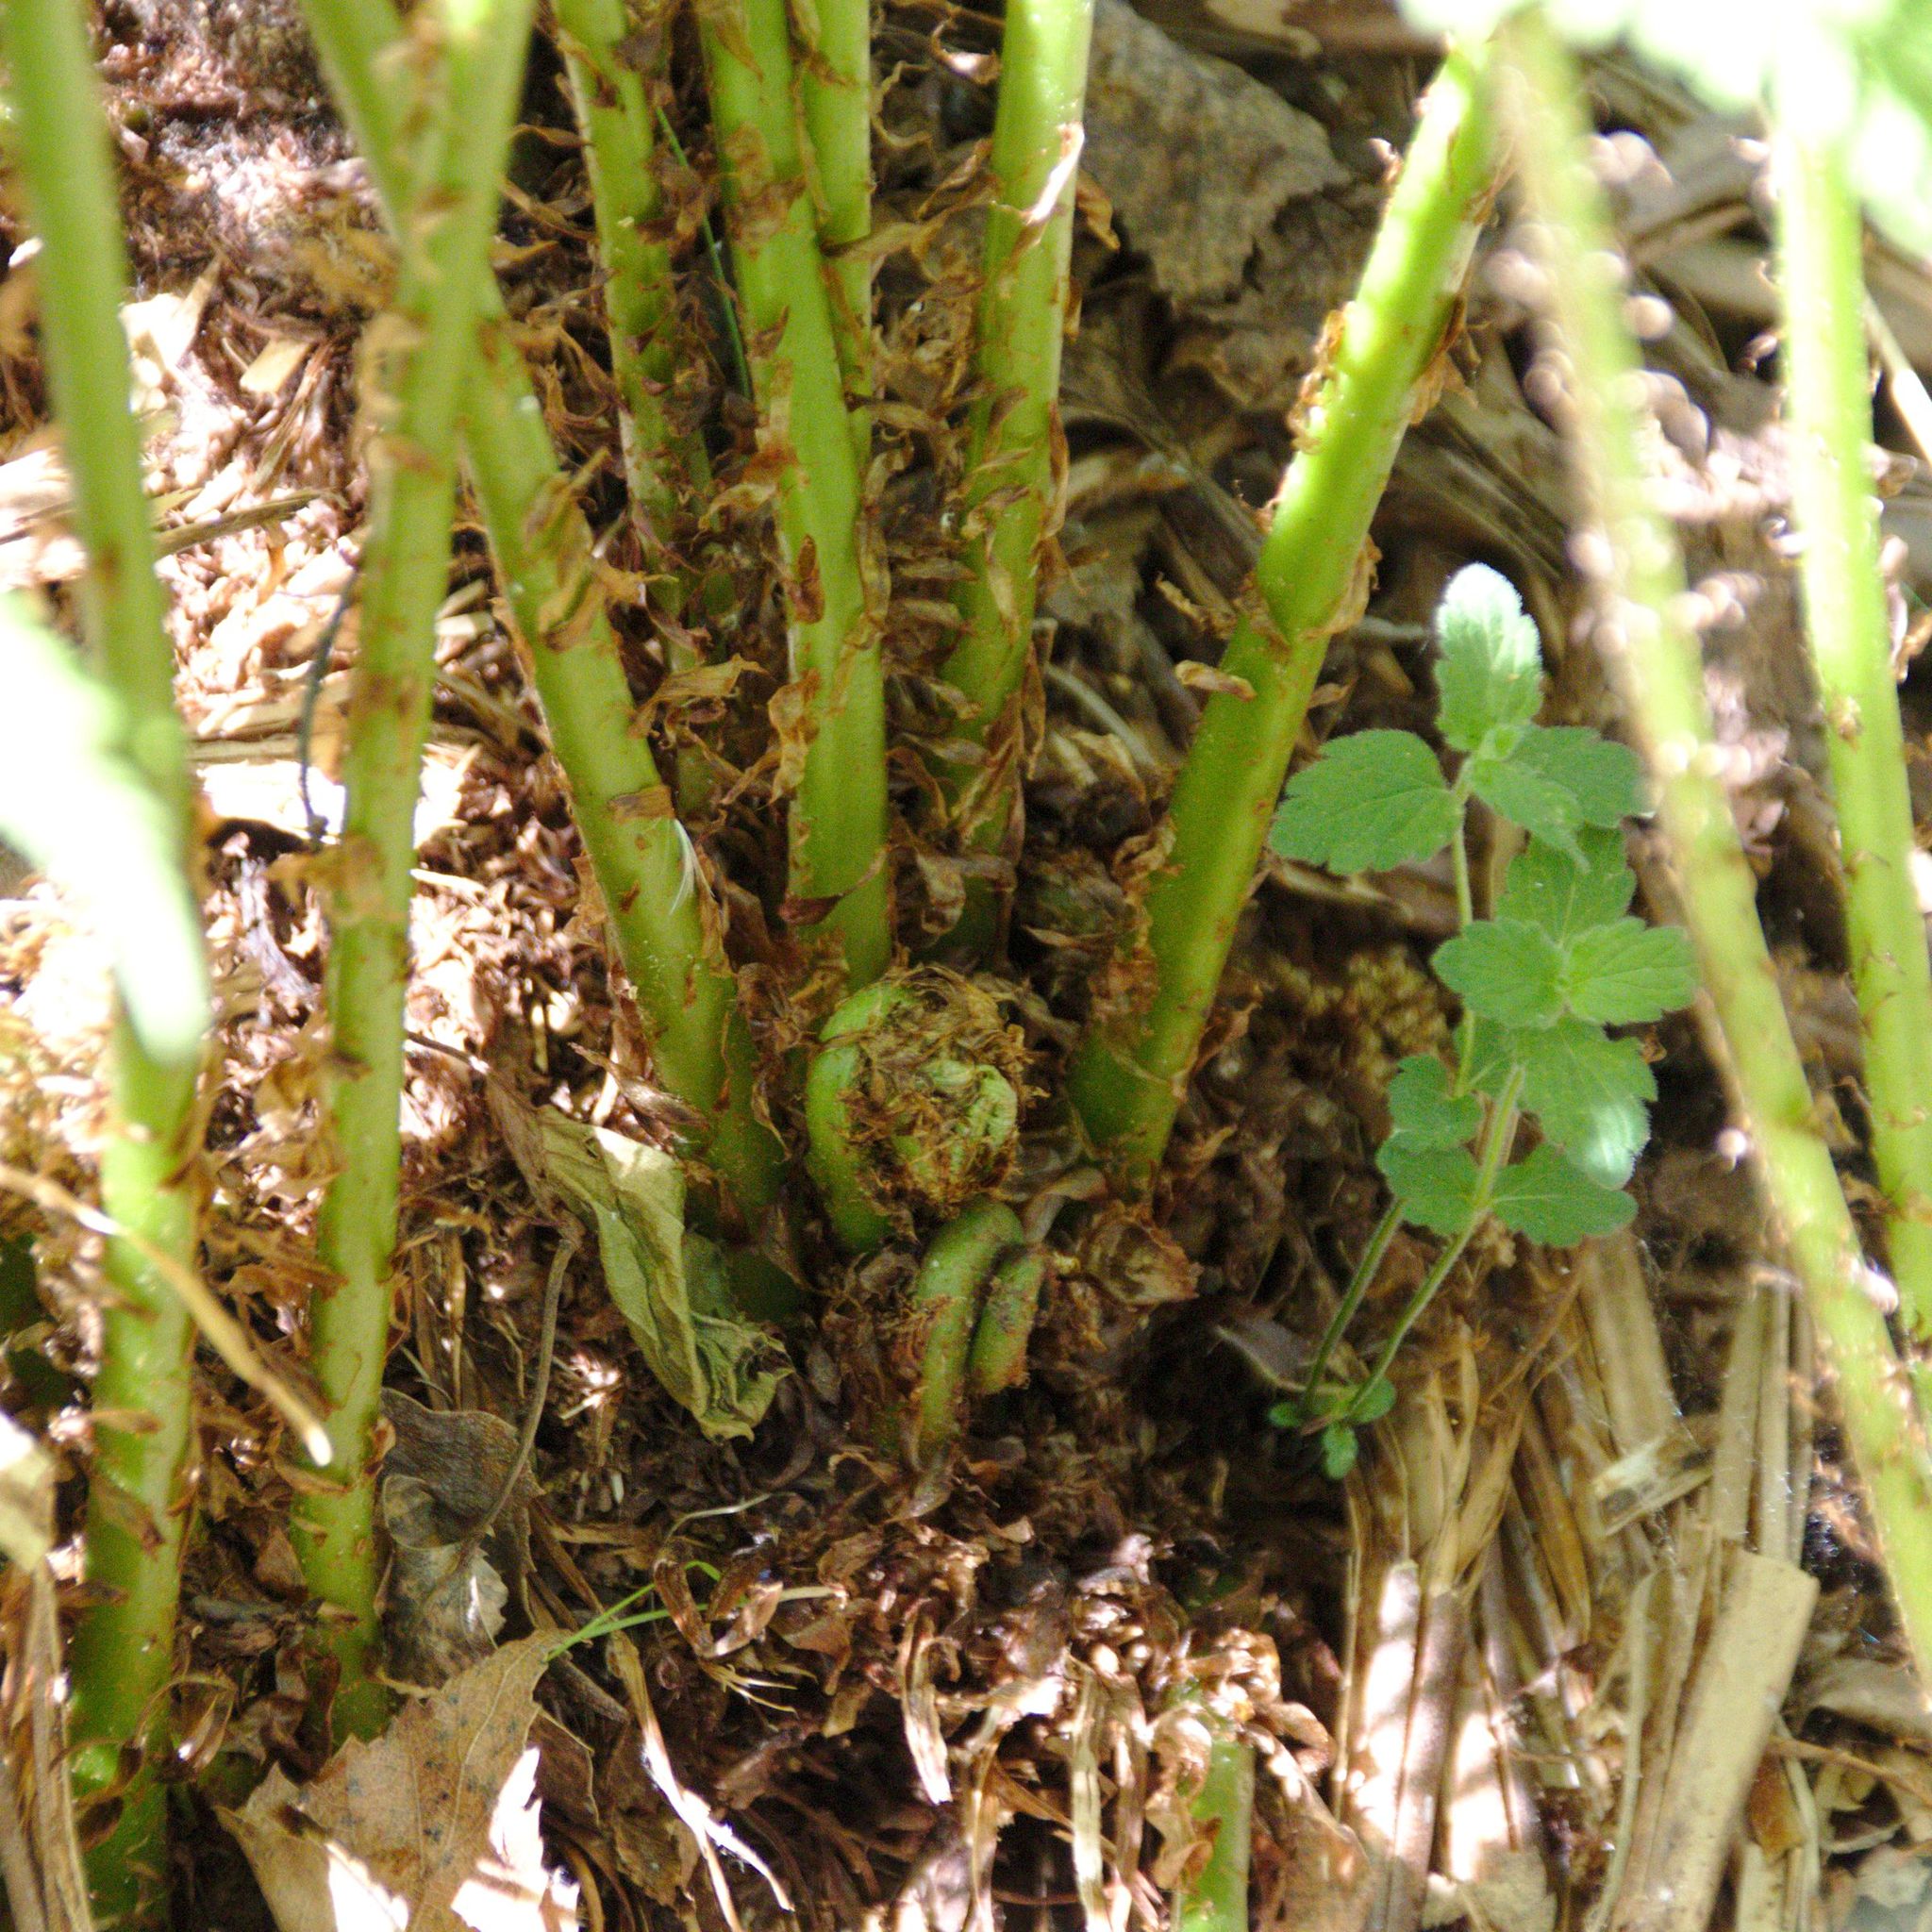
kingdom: Plantae
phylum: Tracheophyta
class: Polypodiopsida
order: Polypodiales
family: Athyriaceae
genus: Athyrium
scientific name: Athyrium filix-femina
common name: Lady fern
